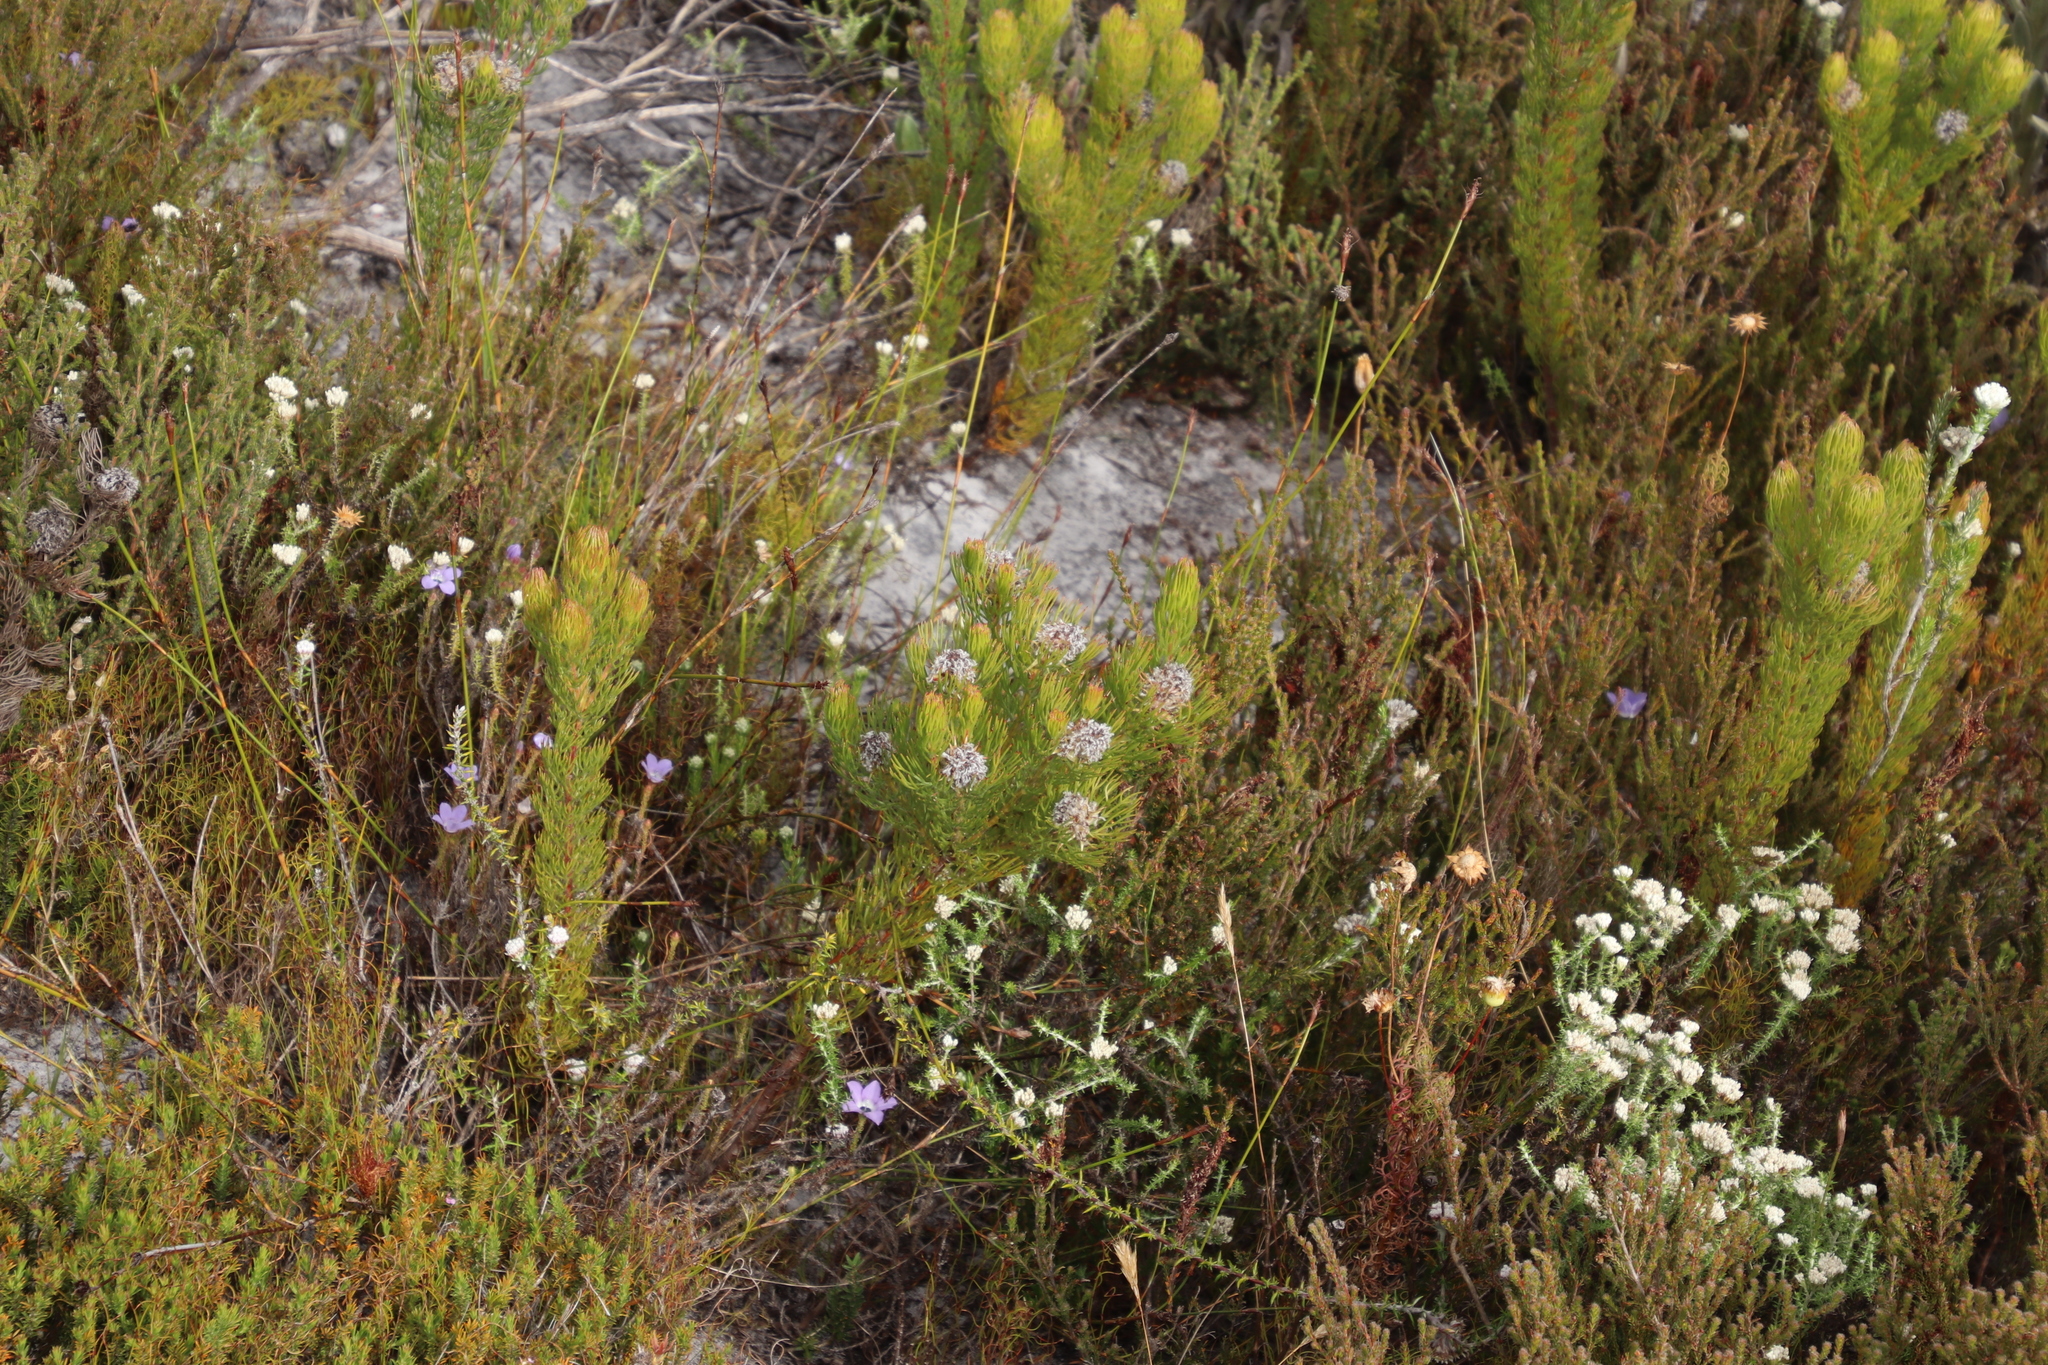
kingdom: Plantae
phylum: Tracheophyta
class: Magnoliopsida
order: Proteales
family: Proteaceae
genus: Serruria
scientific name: Serruria villosa
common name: Golden spiderhead
